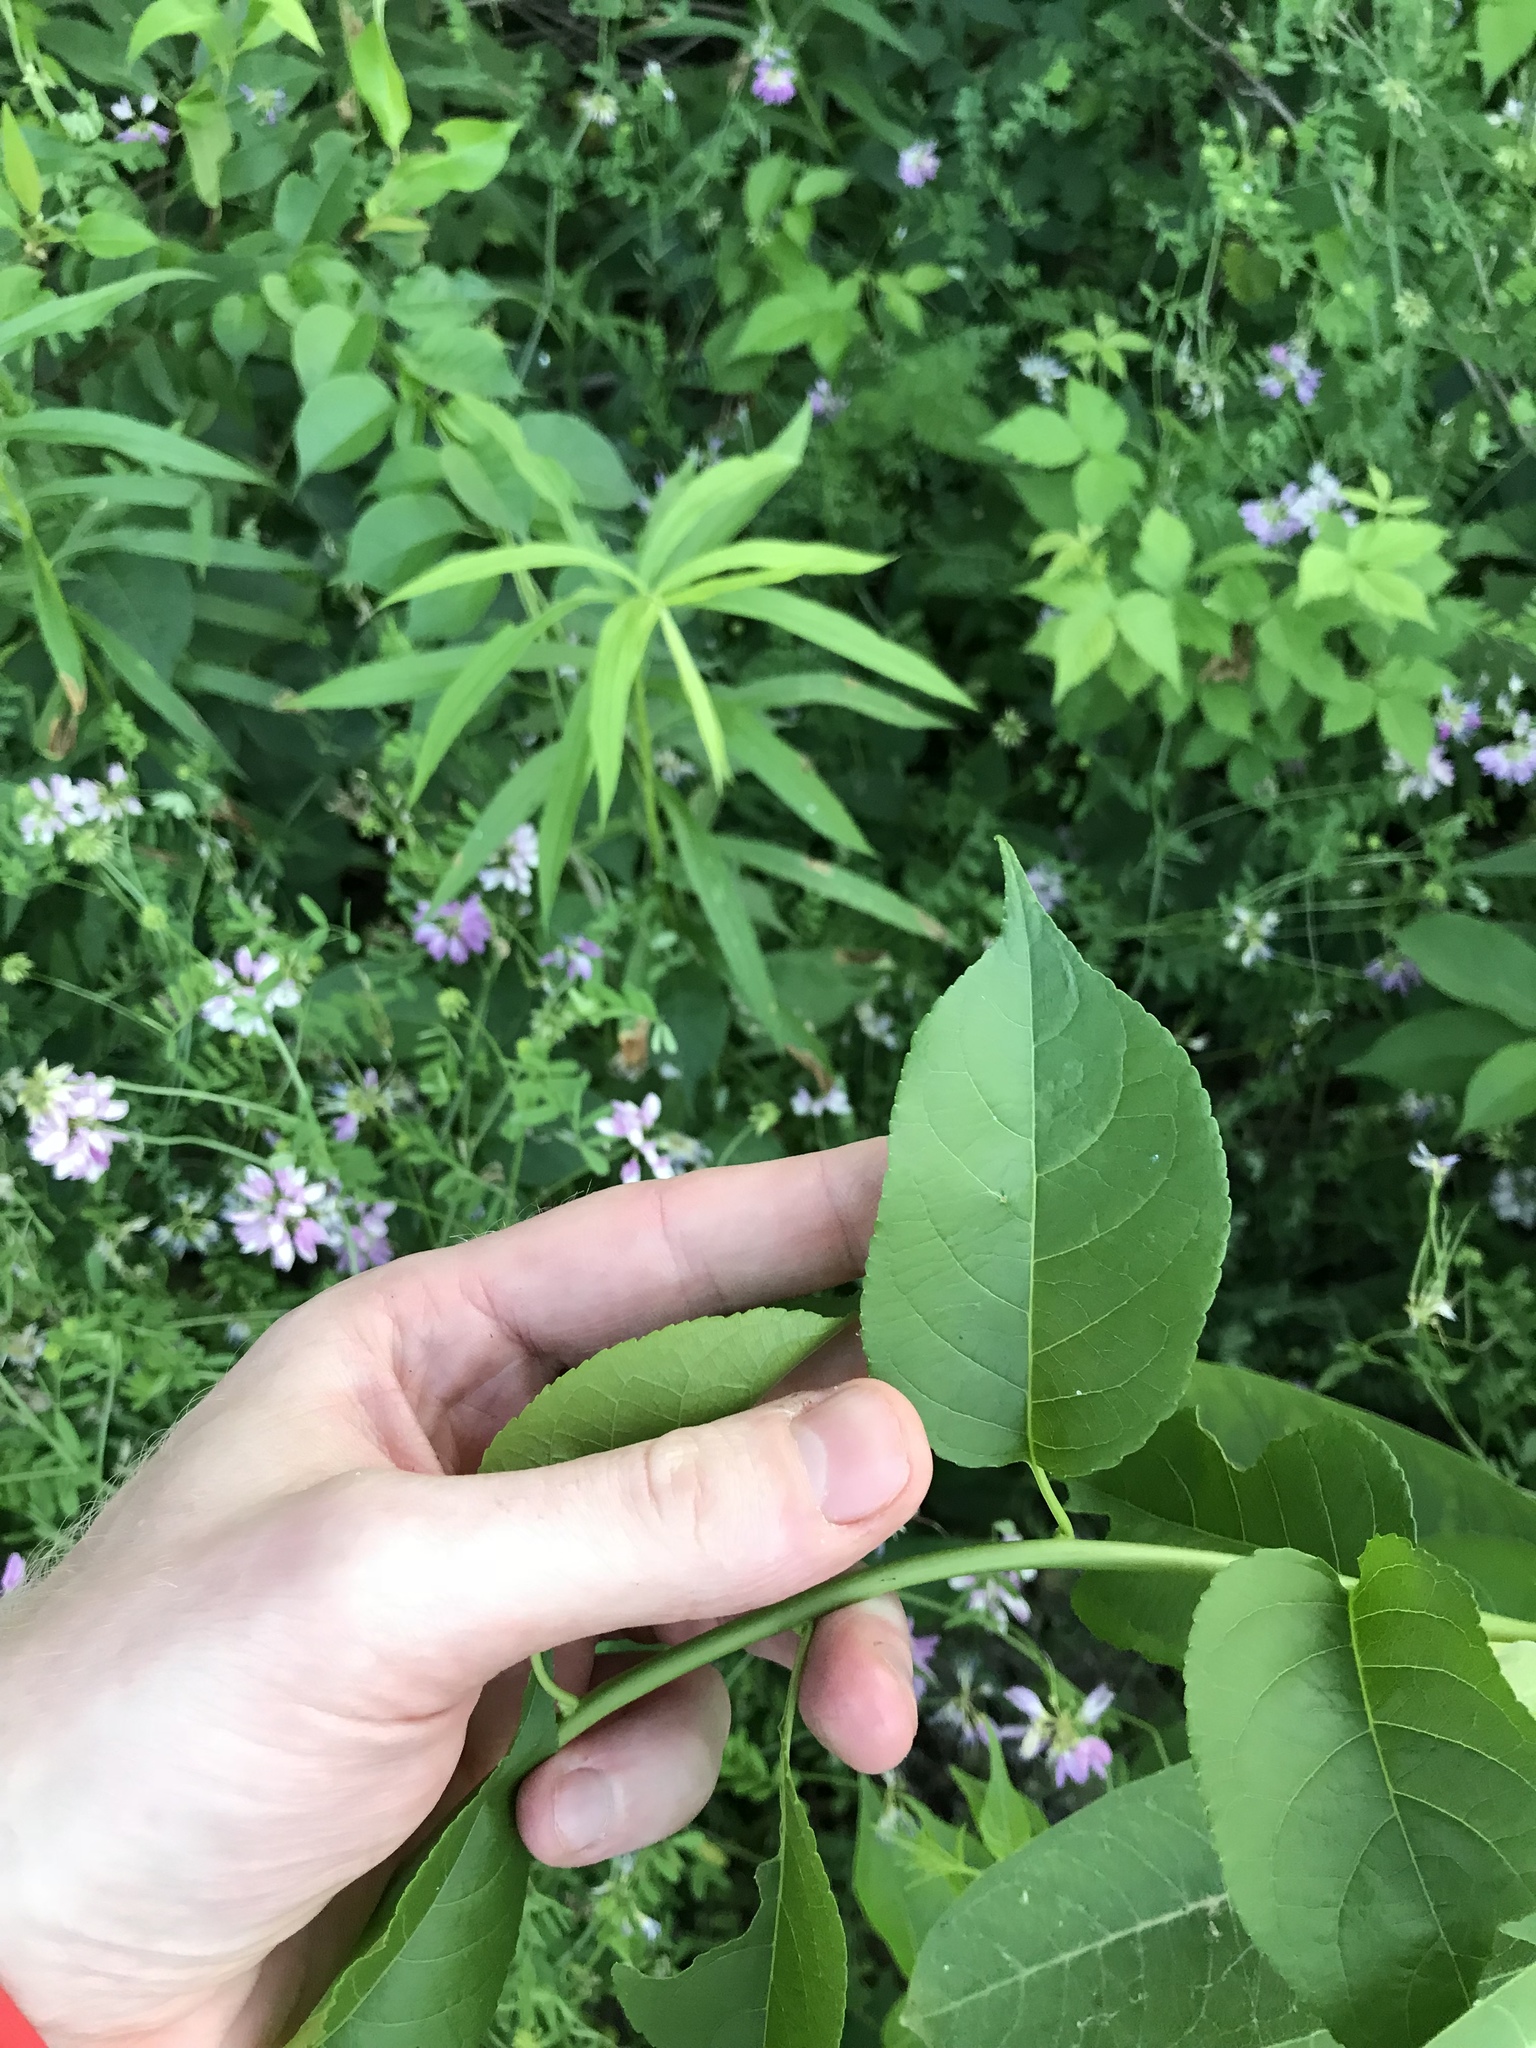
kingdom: Plantae
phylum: Tracheophyta
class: Magnoliopsida
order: Celastrales
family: Celastraceae
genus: Celastrus
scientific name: Celastrus scandens
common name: American bittersweet
